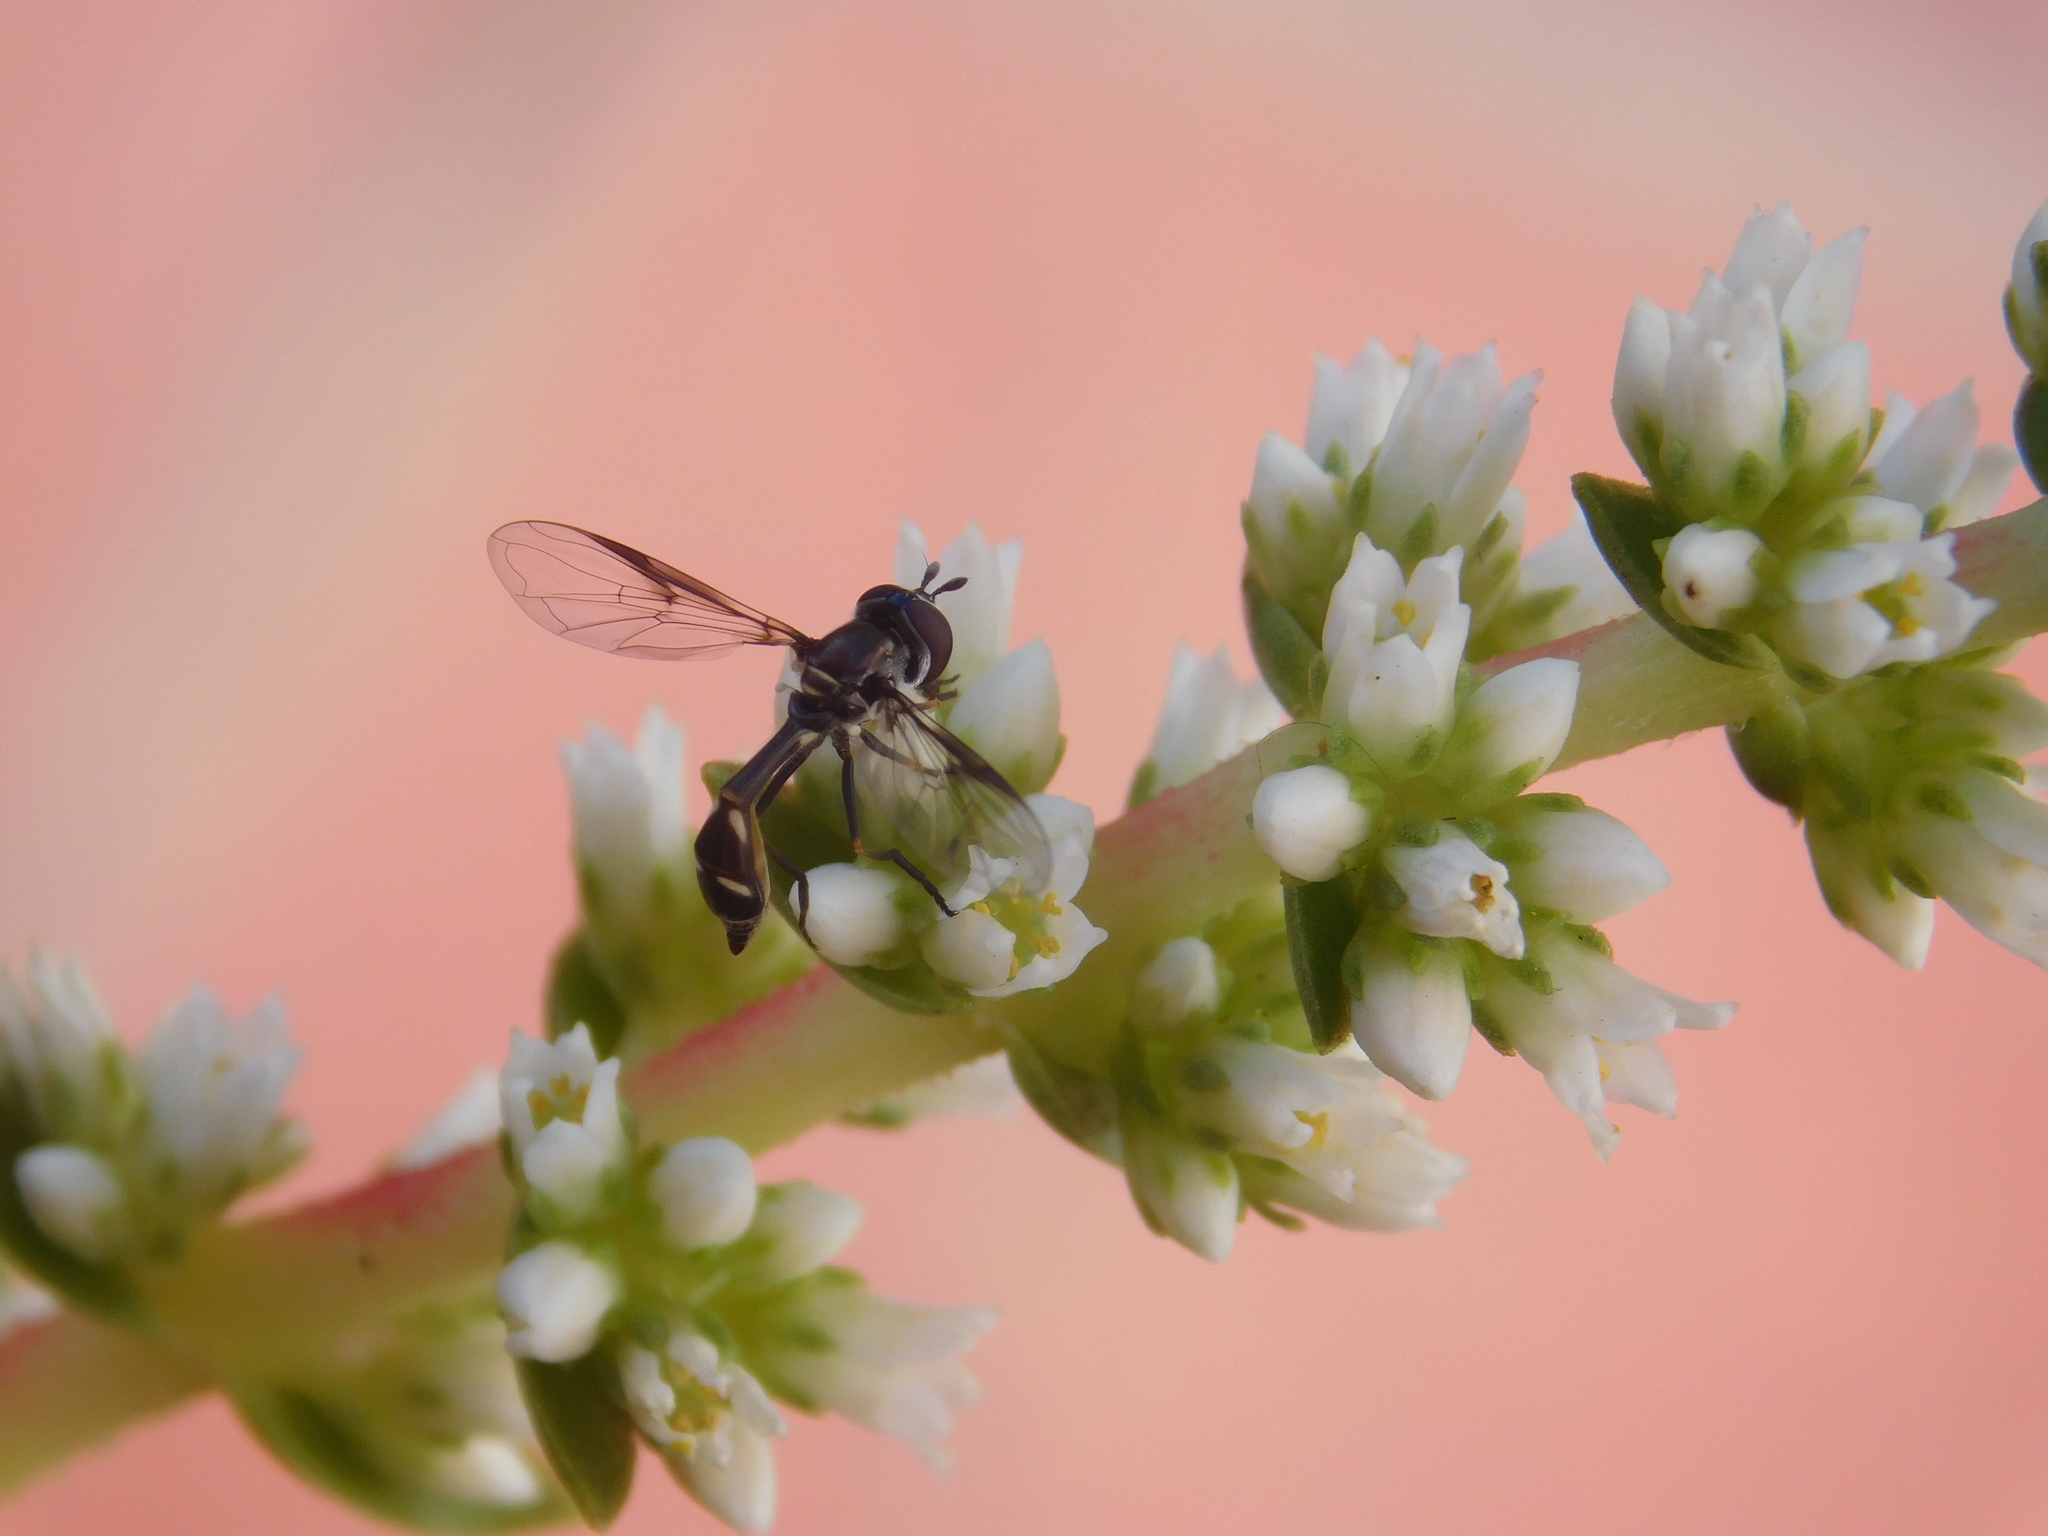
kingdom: Animalia
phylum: Arthropoda
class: Insecta
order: Diptera
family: Syrphidae
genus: Dioprosopa
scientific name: Dioprosopa clavatus
